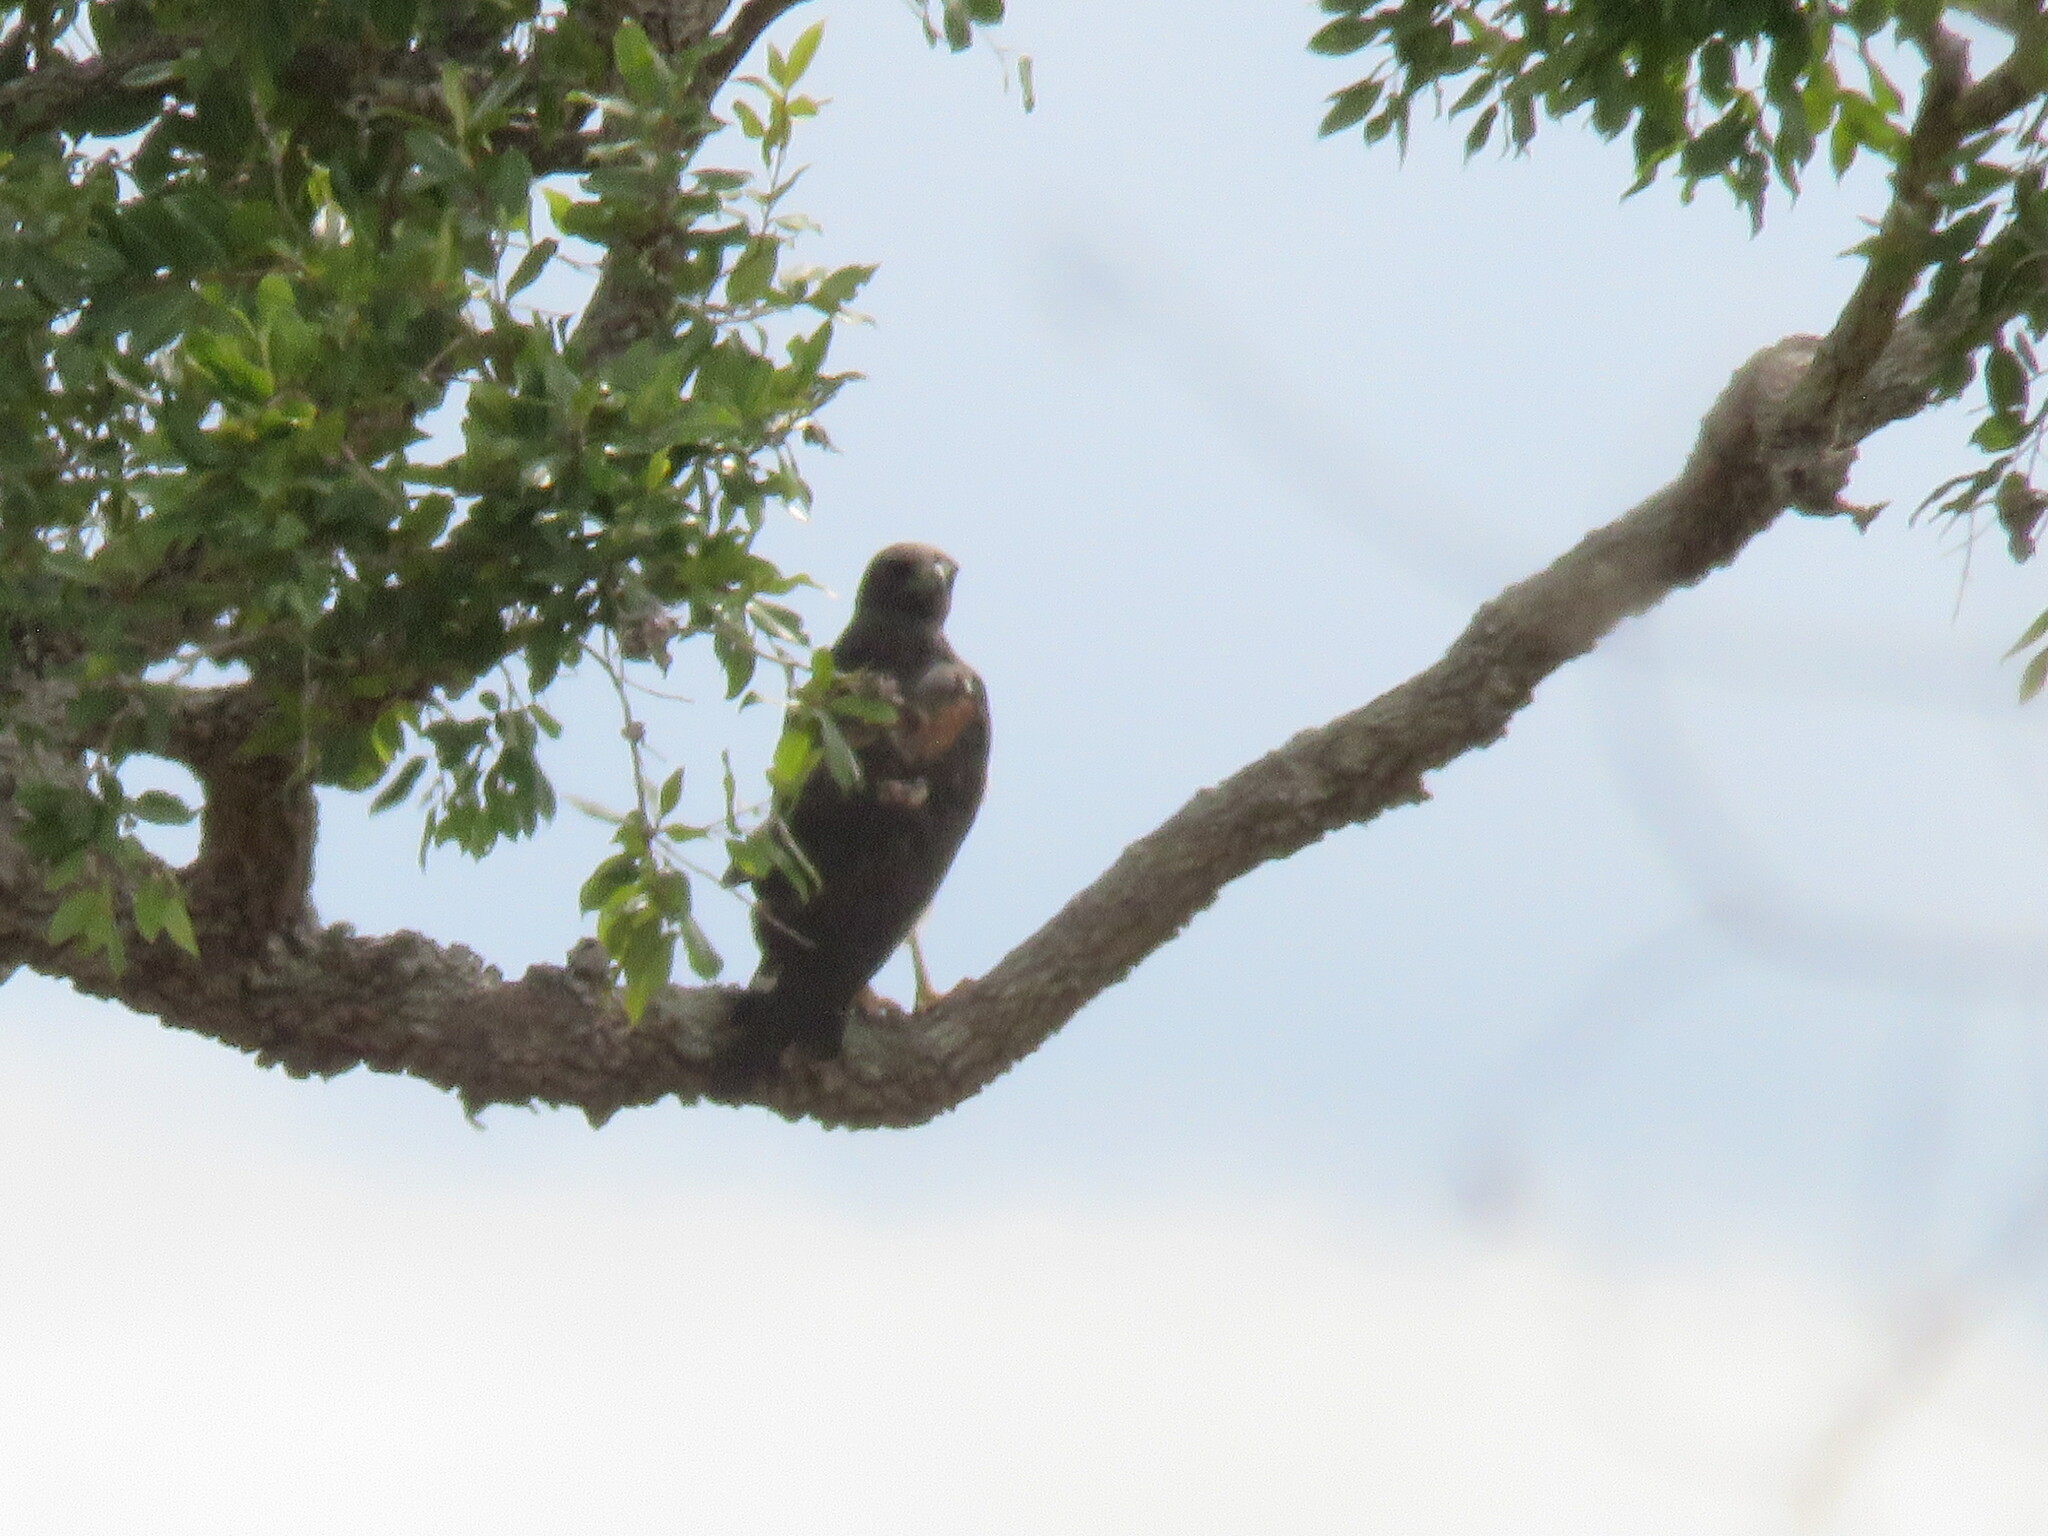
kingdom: Animalia
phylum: Chordata
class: Aves
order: Accipitriformes
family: Accipitridae
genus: Buteo
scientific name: Buteo albicaudatus
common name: White-tailed hawk
